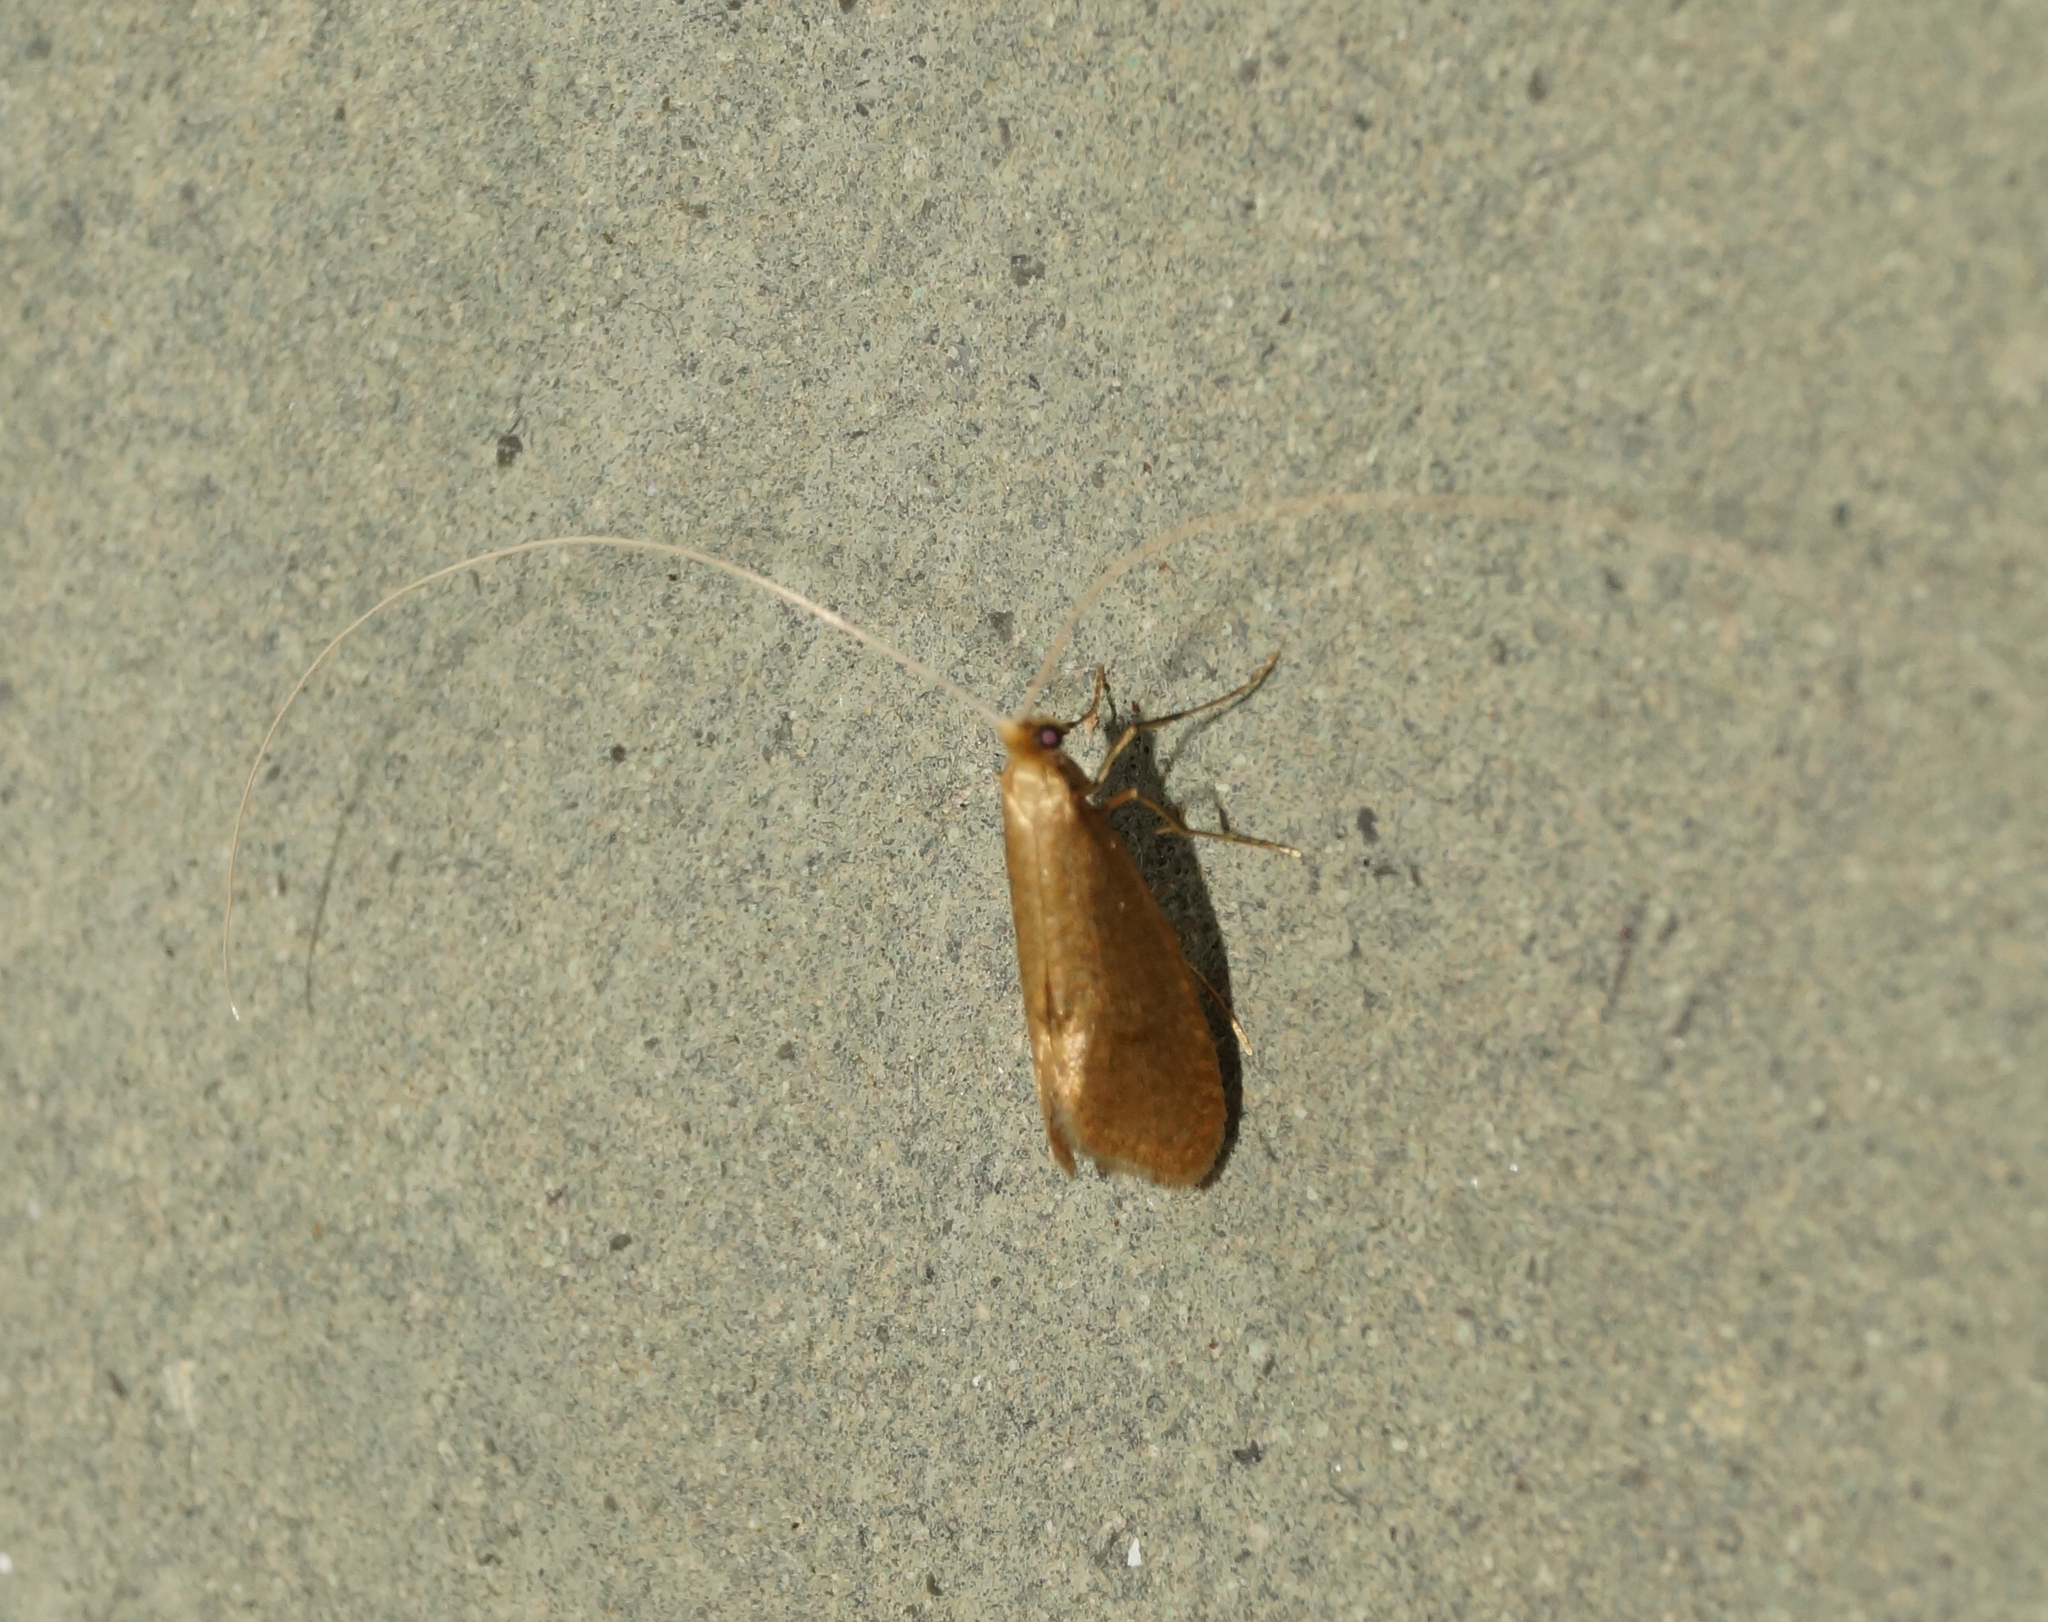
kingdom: Animalia
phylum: Arthropoda
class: Insecta
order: Lepidoptera
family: Adelidae
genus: Nematopogon
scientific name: Nematopogon schwarziellus
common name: Sandy long-horn
